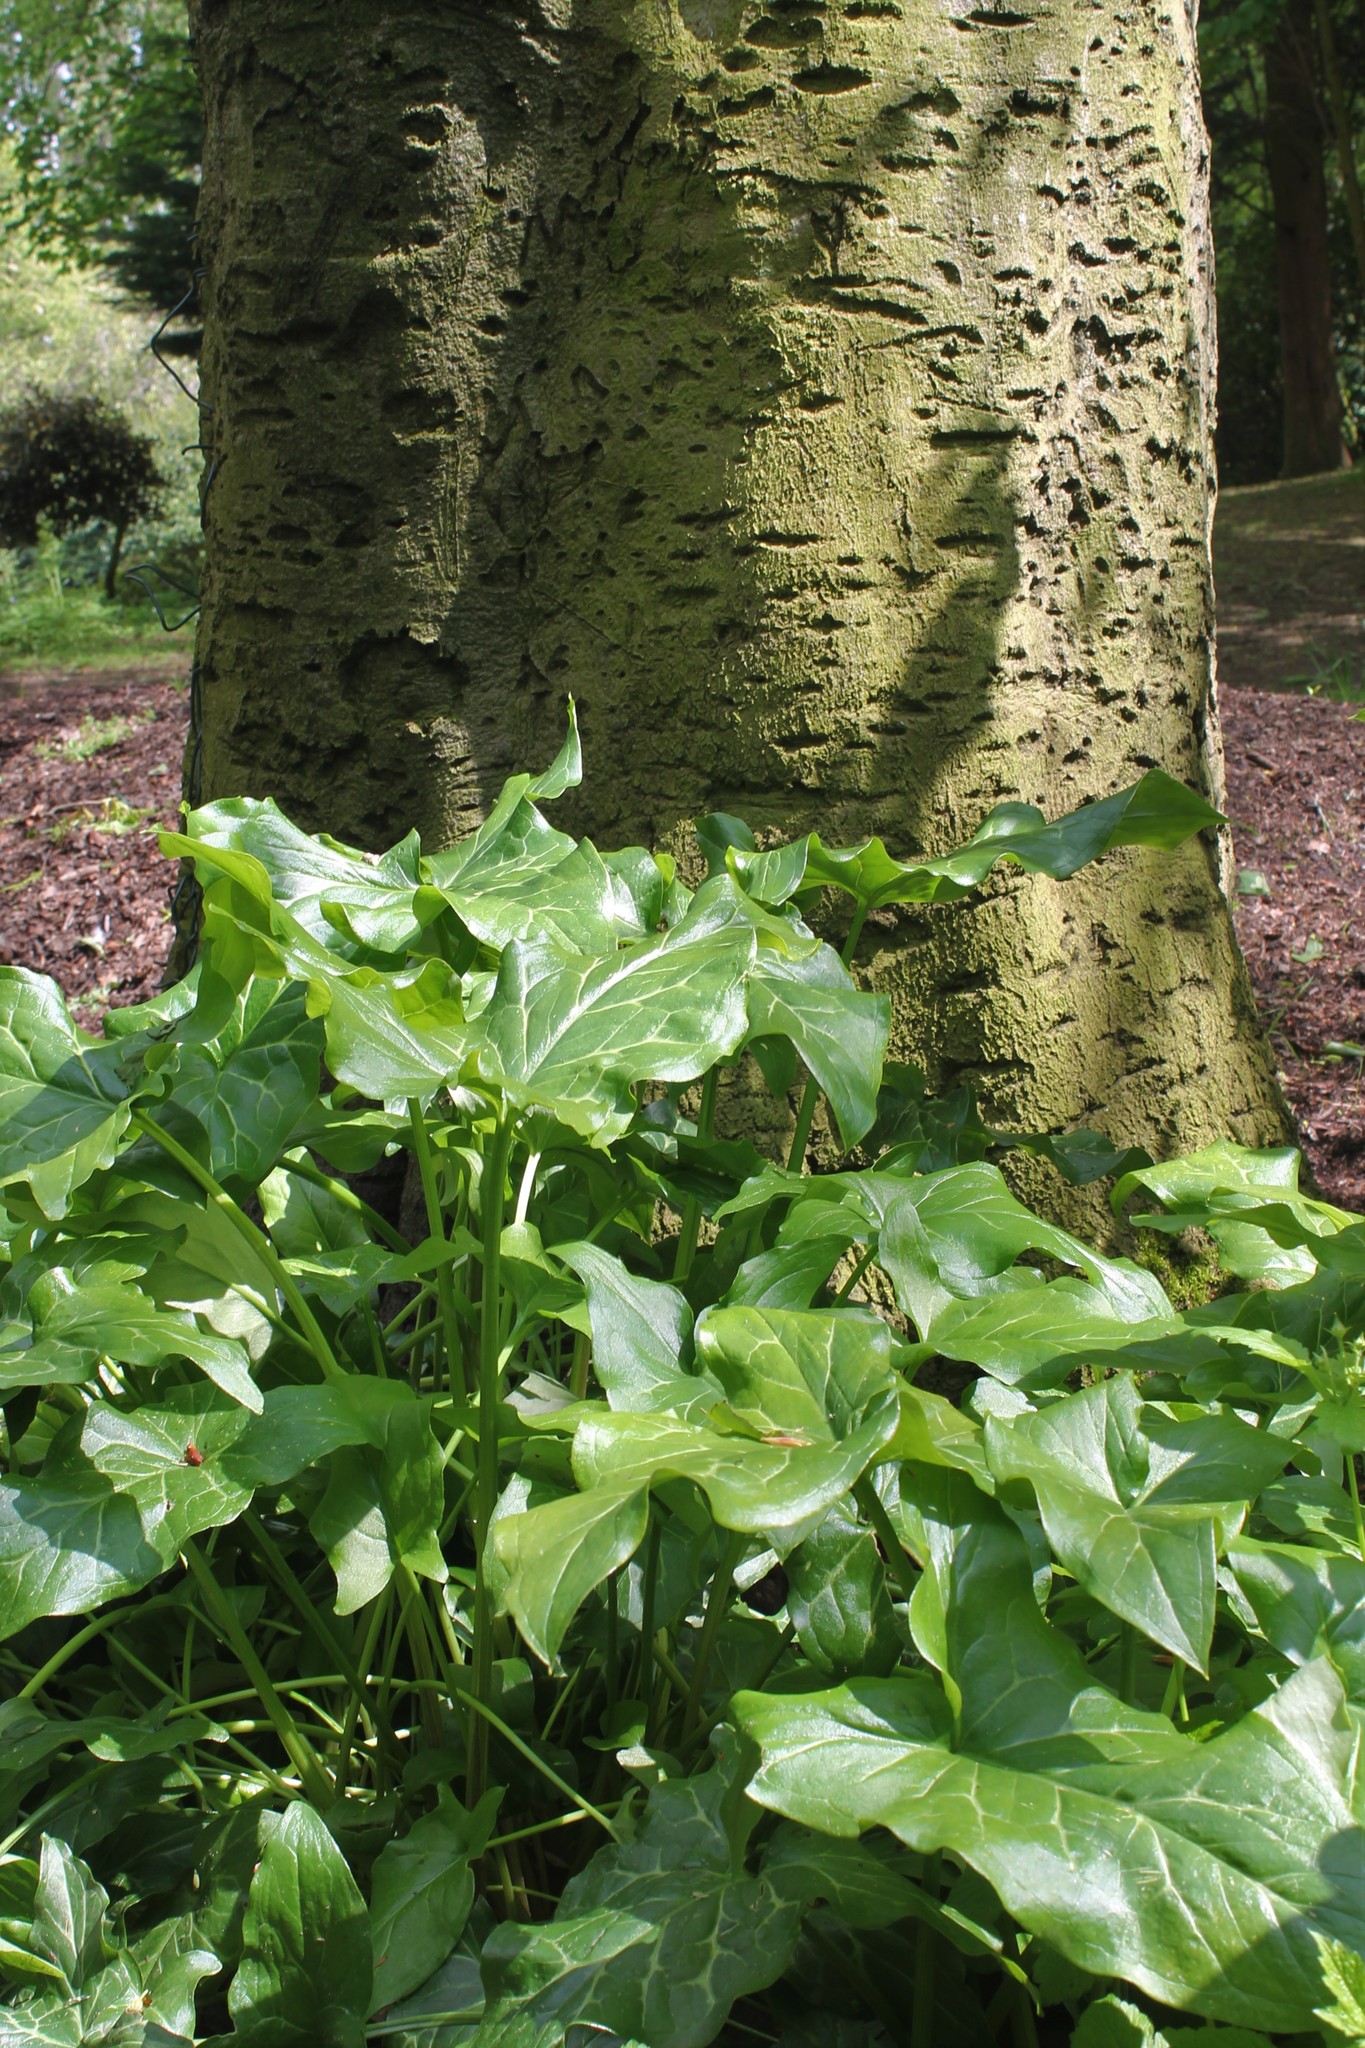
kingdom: Plantae
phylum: Tracheophyta
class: Liliopsida
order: Alismatales
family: Araceae
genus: Arum
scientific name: Arum italicum
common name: Italian lords-and-ladies
